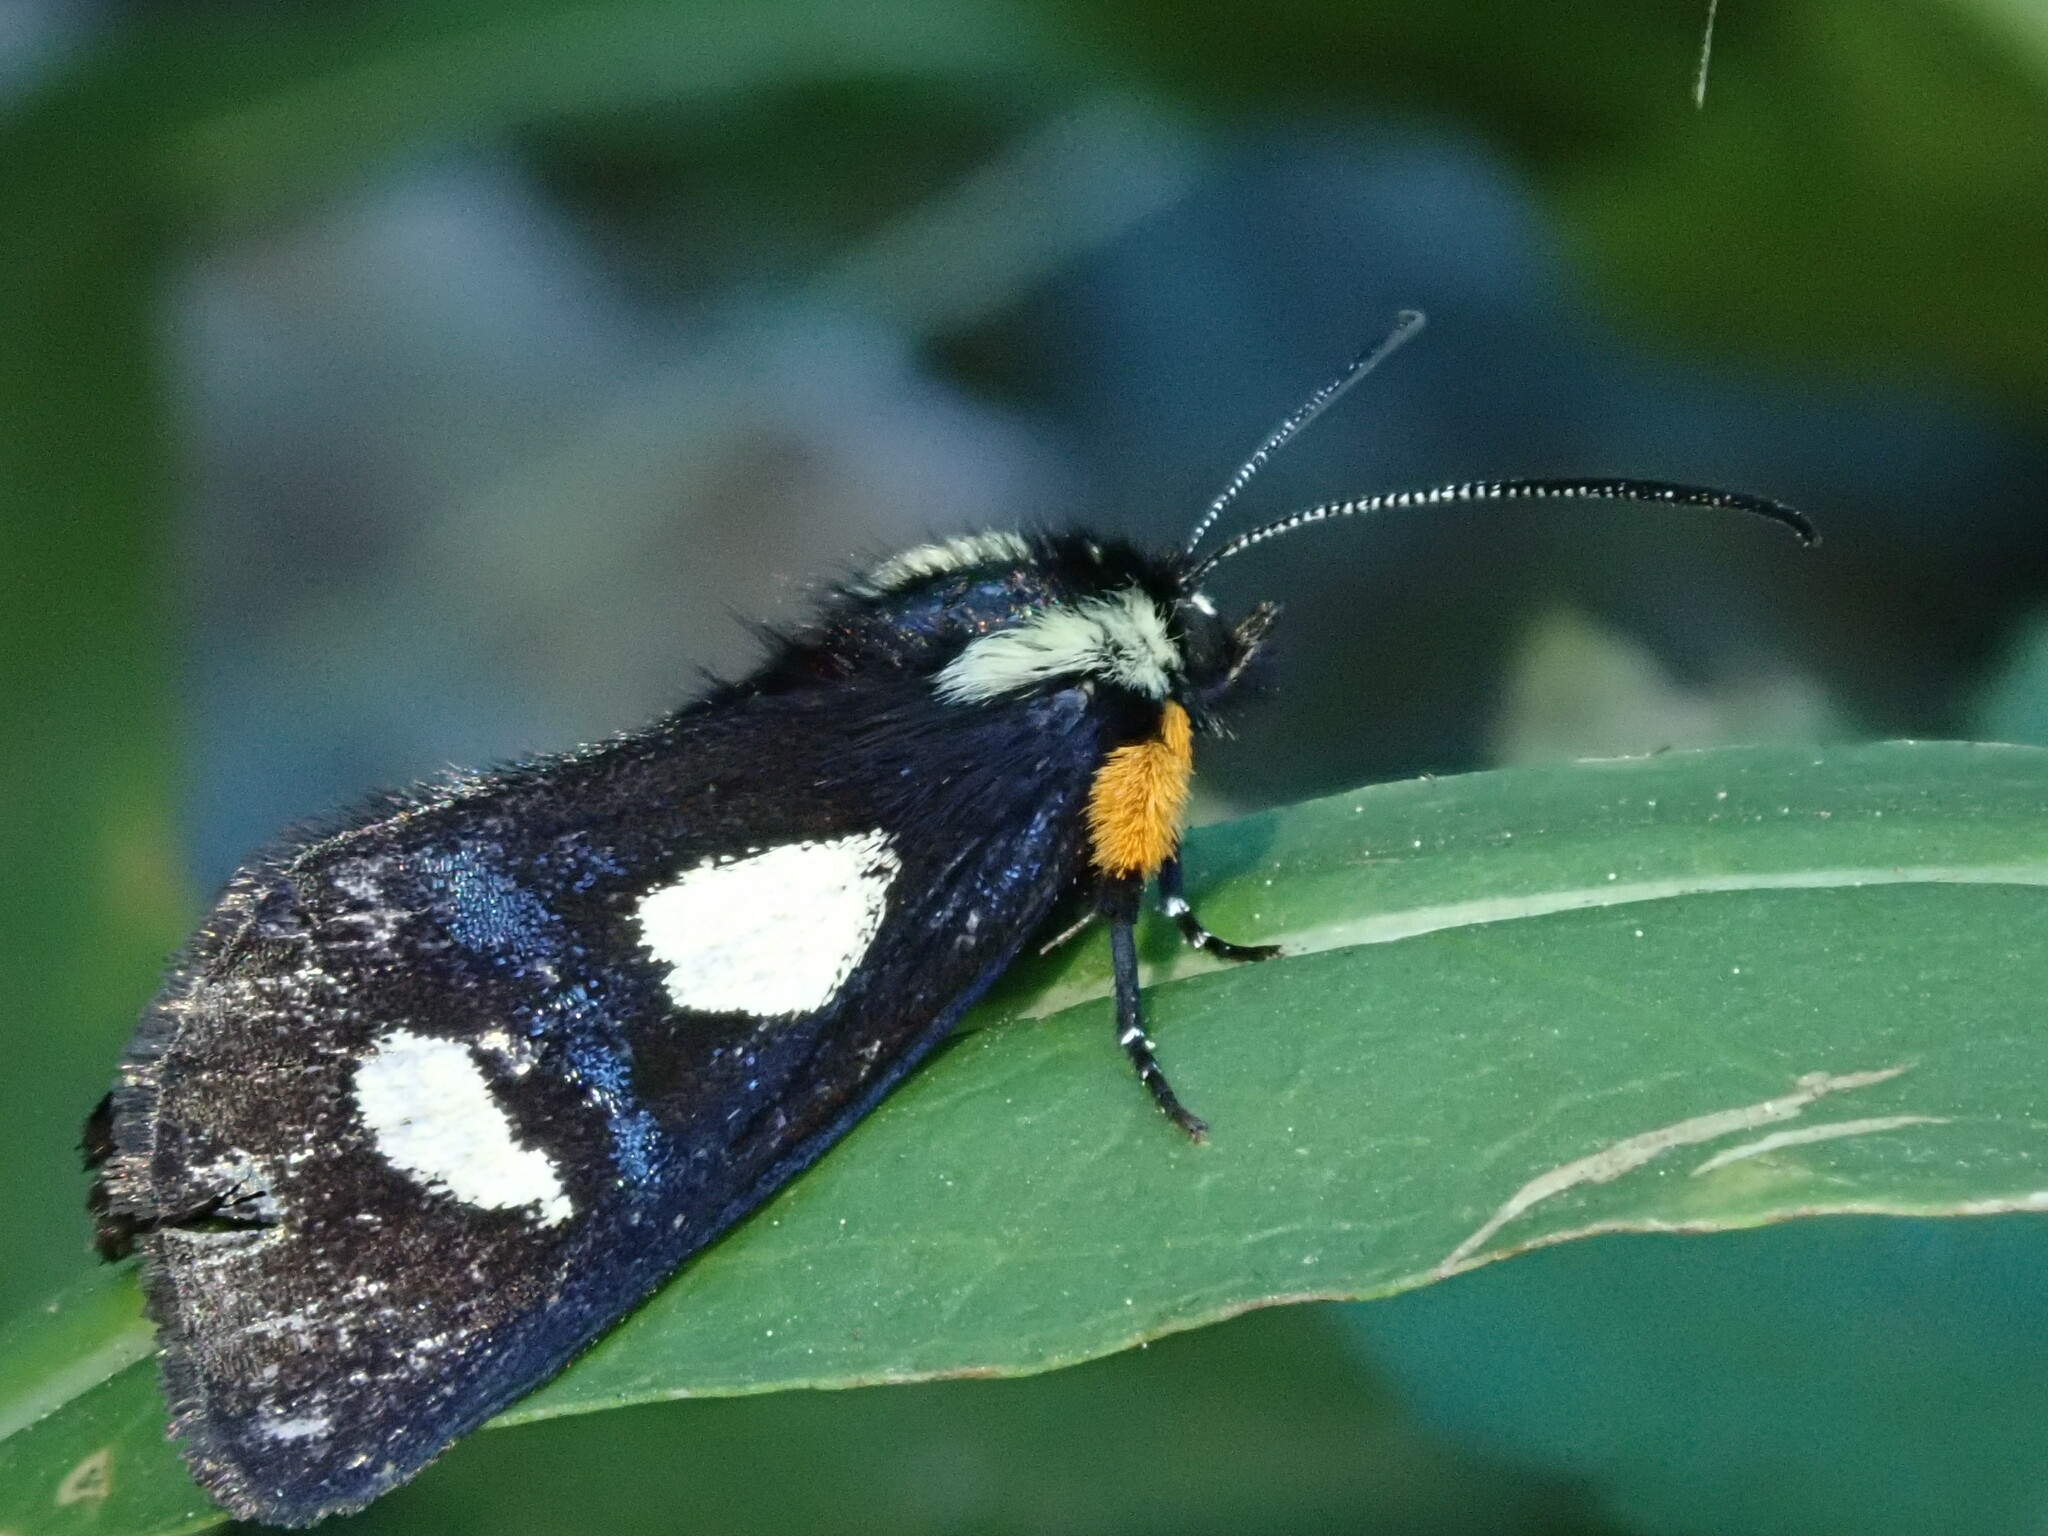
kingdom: Animalia
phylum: Arthropoda
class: Insecta
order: Lepidoptera
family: Noctuidae
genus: Alypia
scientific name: Alypia langtonii
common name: Fireweed caterpillar
